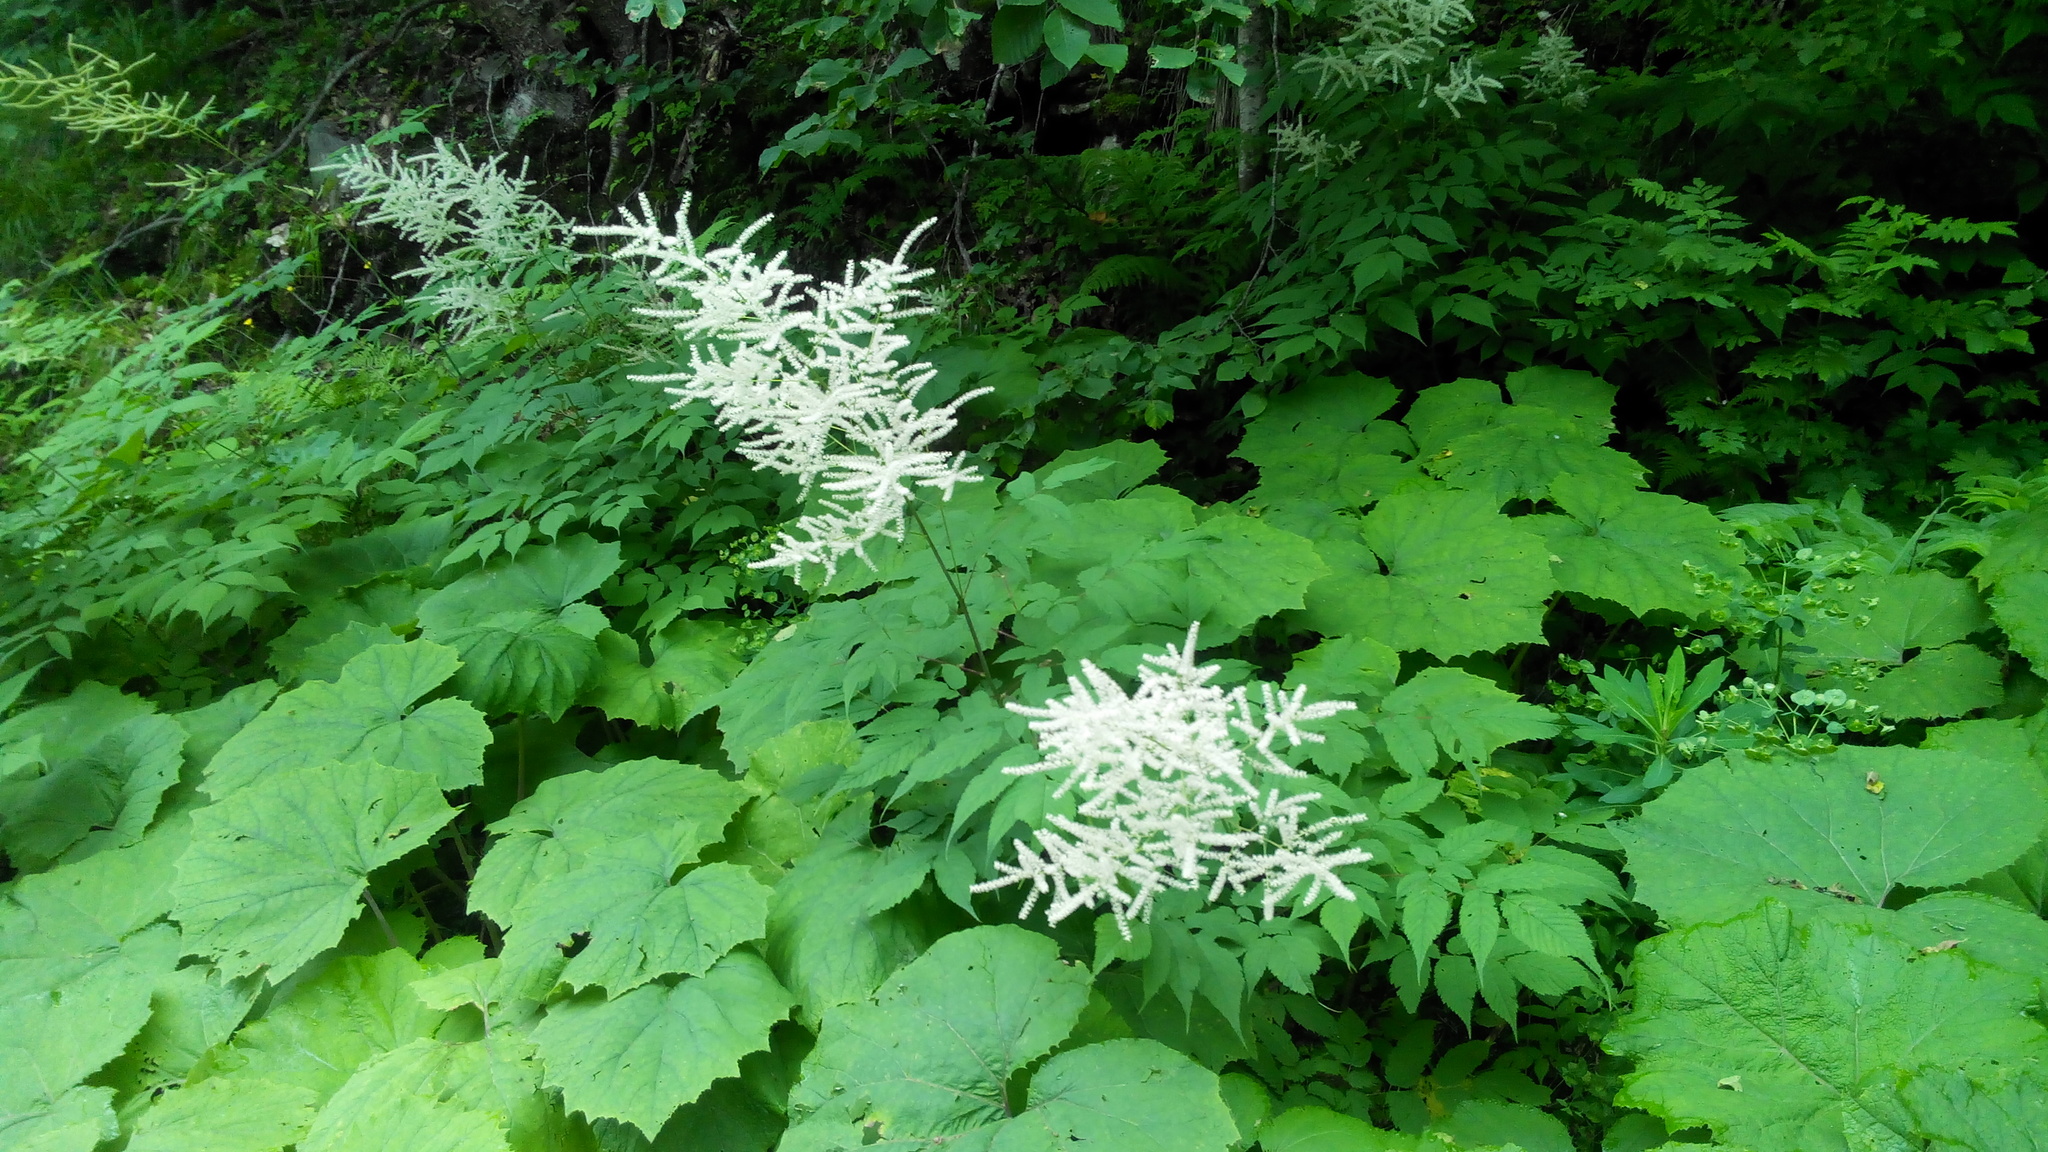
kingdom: Plantae
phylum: Tracheophyta
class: Magnoliopsida
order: Rosales
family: Rosaceae
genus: Aruncus
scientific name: Aruncus dioicus
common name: Buck's-beard
